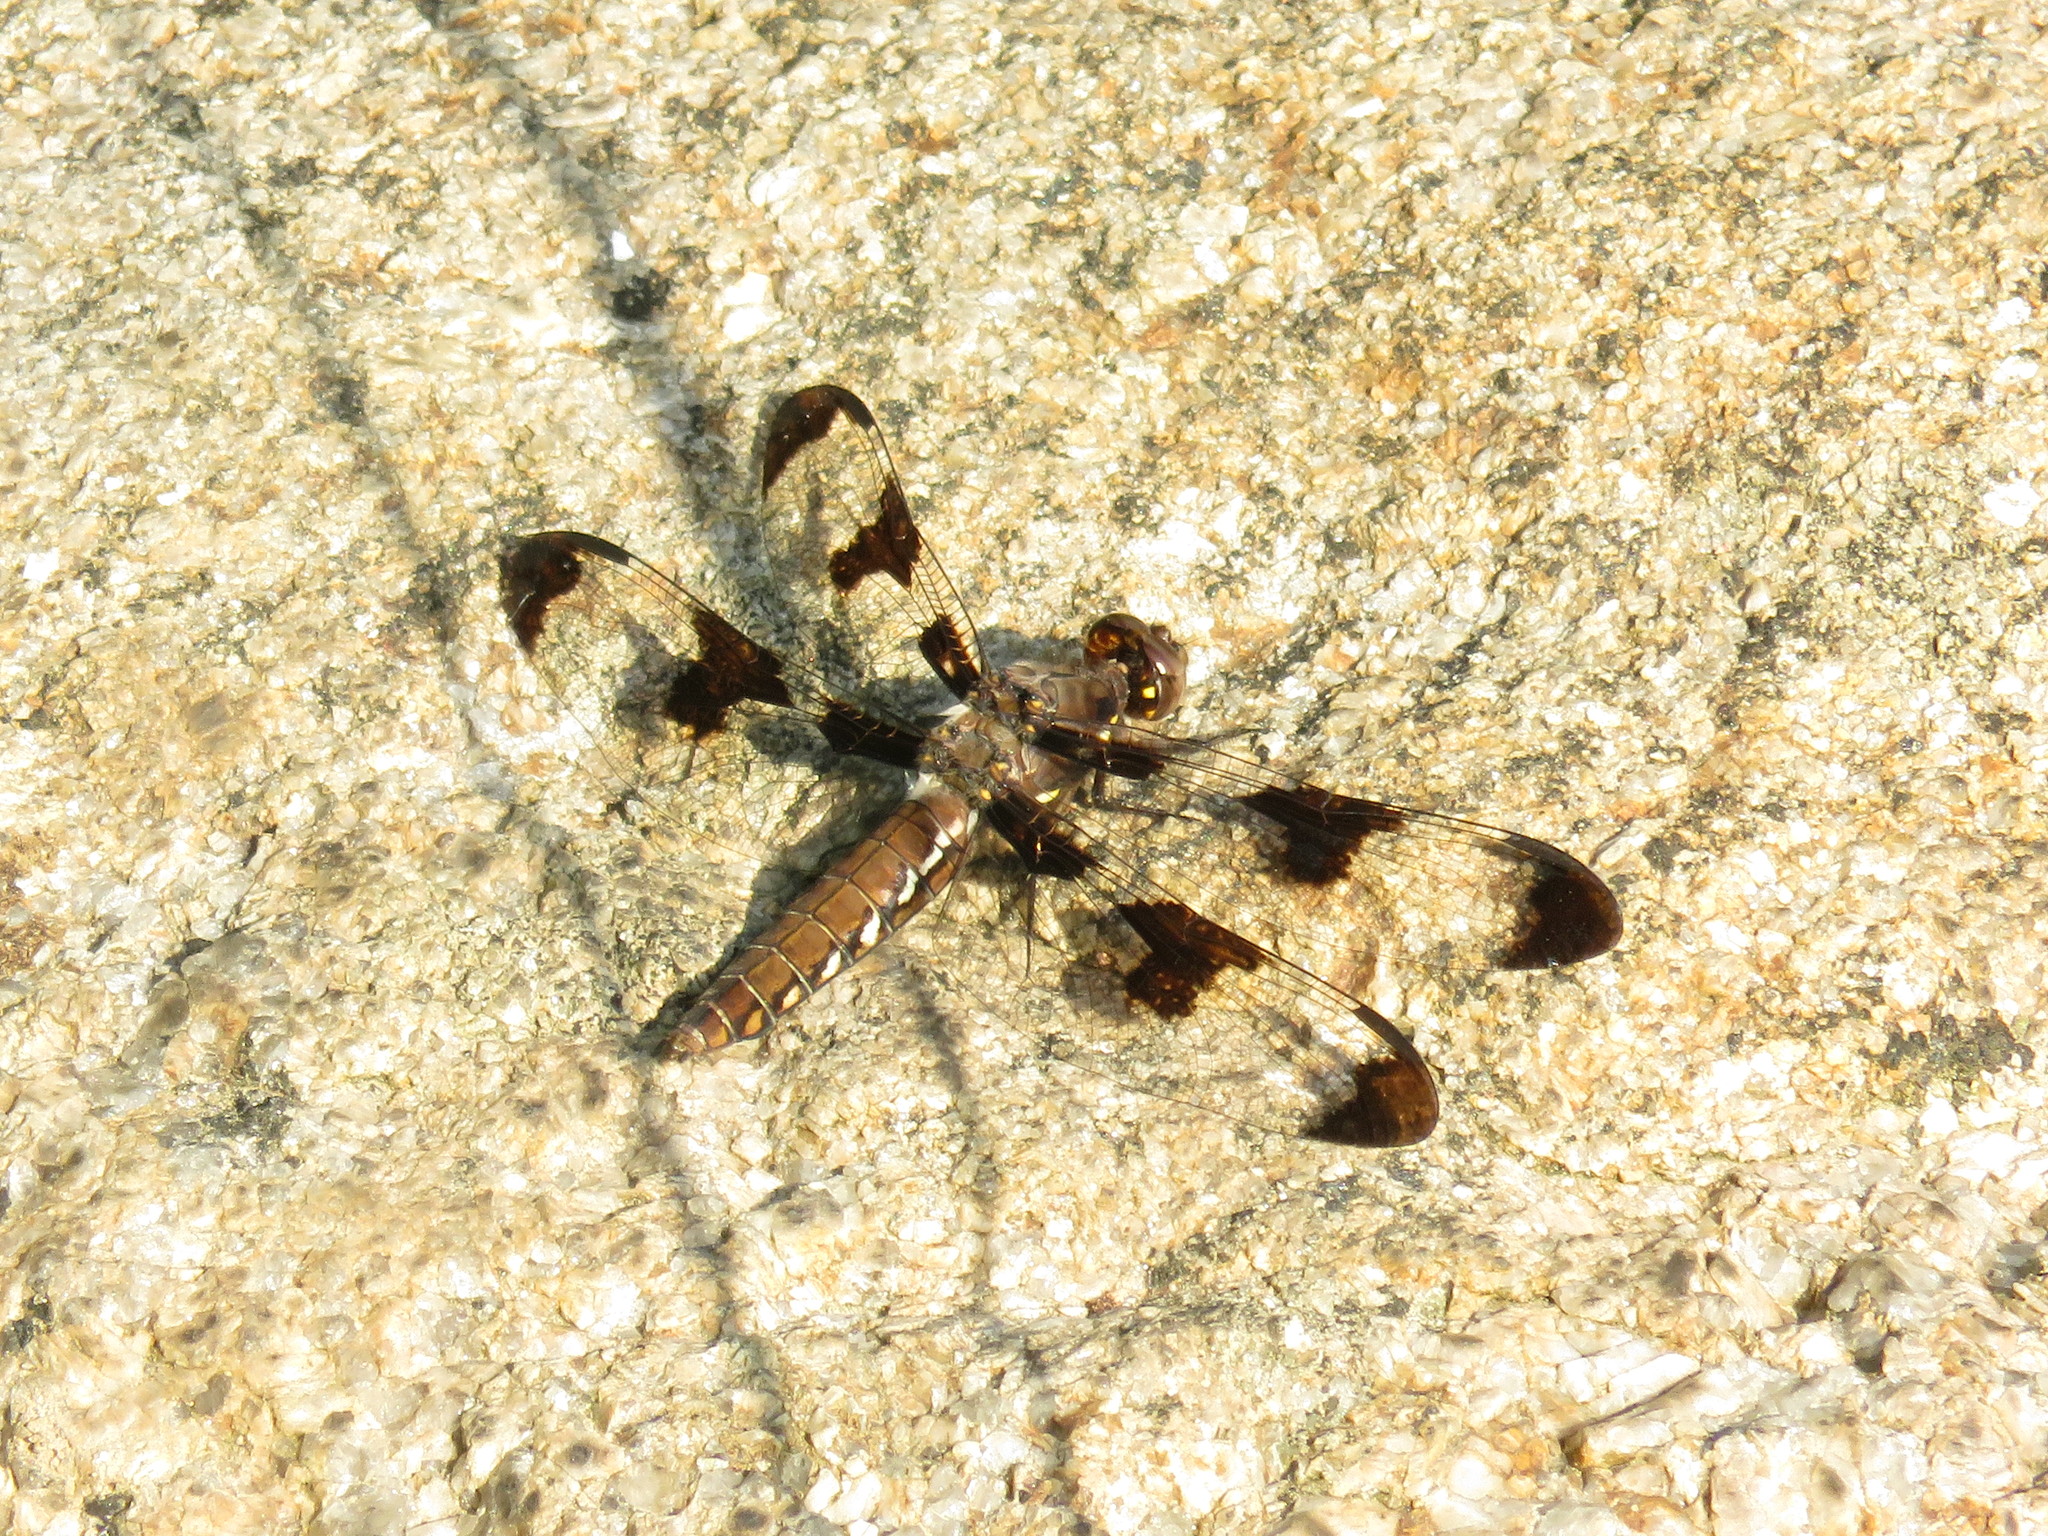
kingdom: Animalia
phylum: Arthropoda
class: Insecta
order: Odonata
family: Libellulidae
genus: Plathemis
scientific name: Plathemis lydia
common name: Common whitetail
